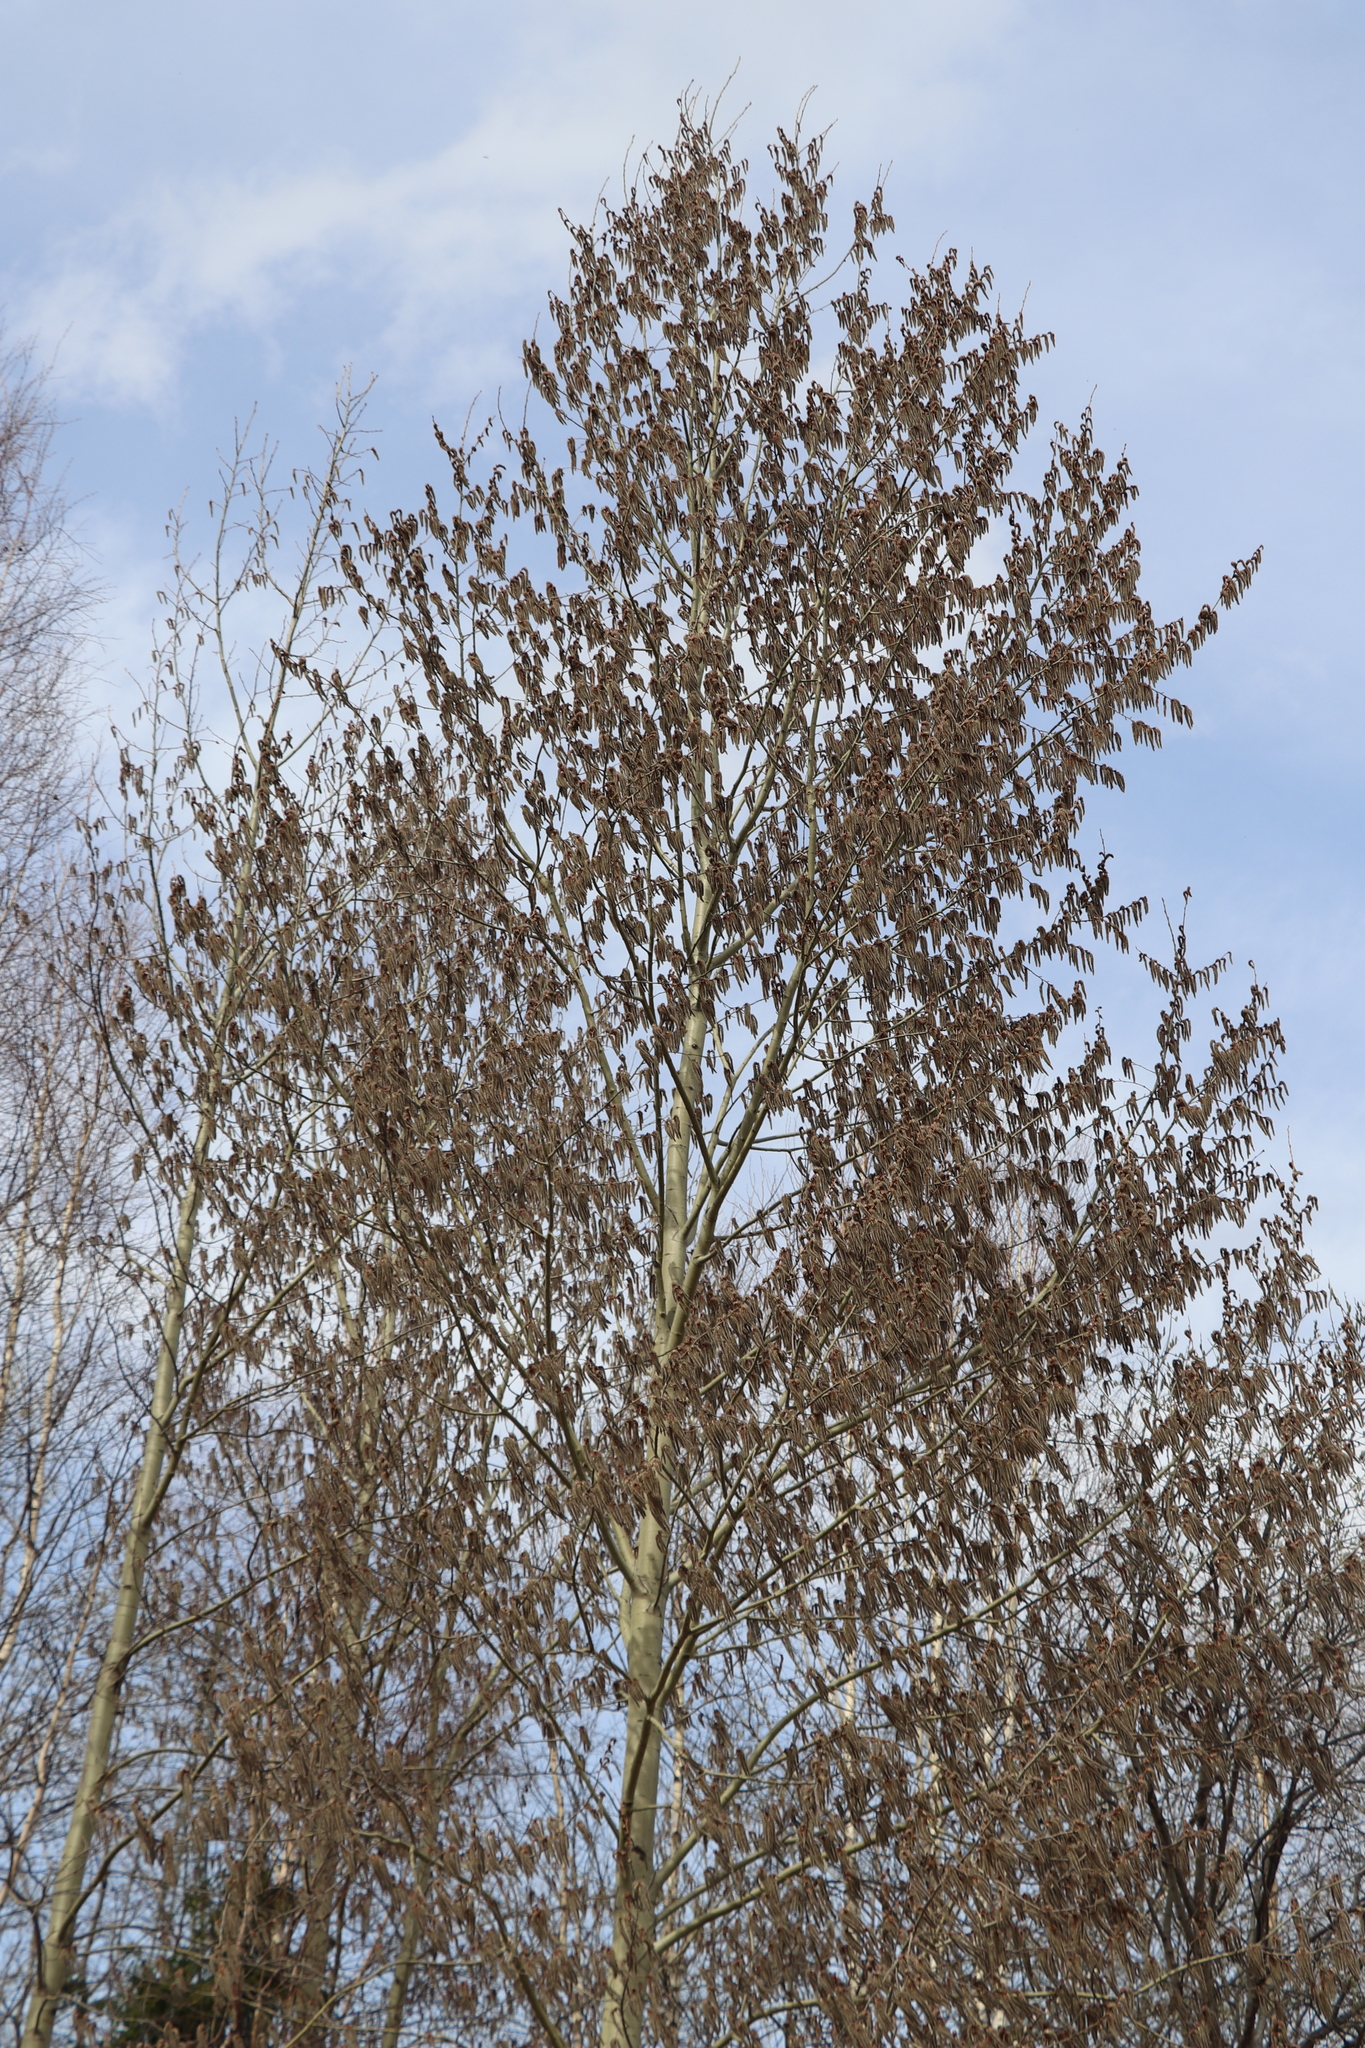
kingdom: Plantae
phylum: Tracheophyta
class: Magnoliopsida
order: Malpighiales
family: Salicaceae
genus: Populus
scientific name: Populus tremula
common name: European aspen
